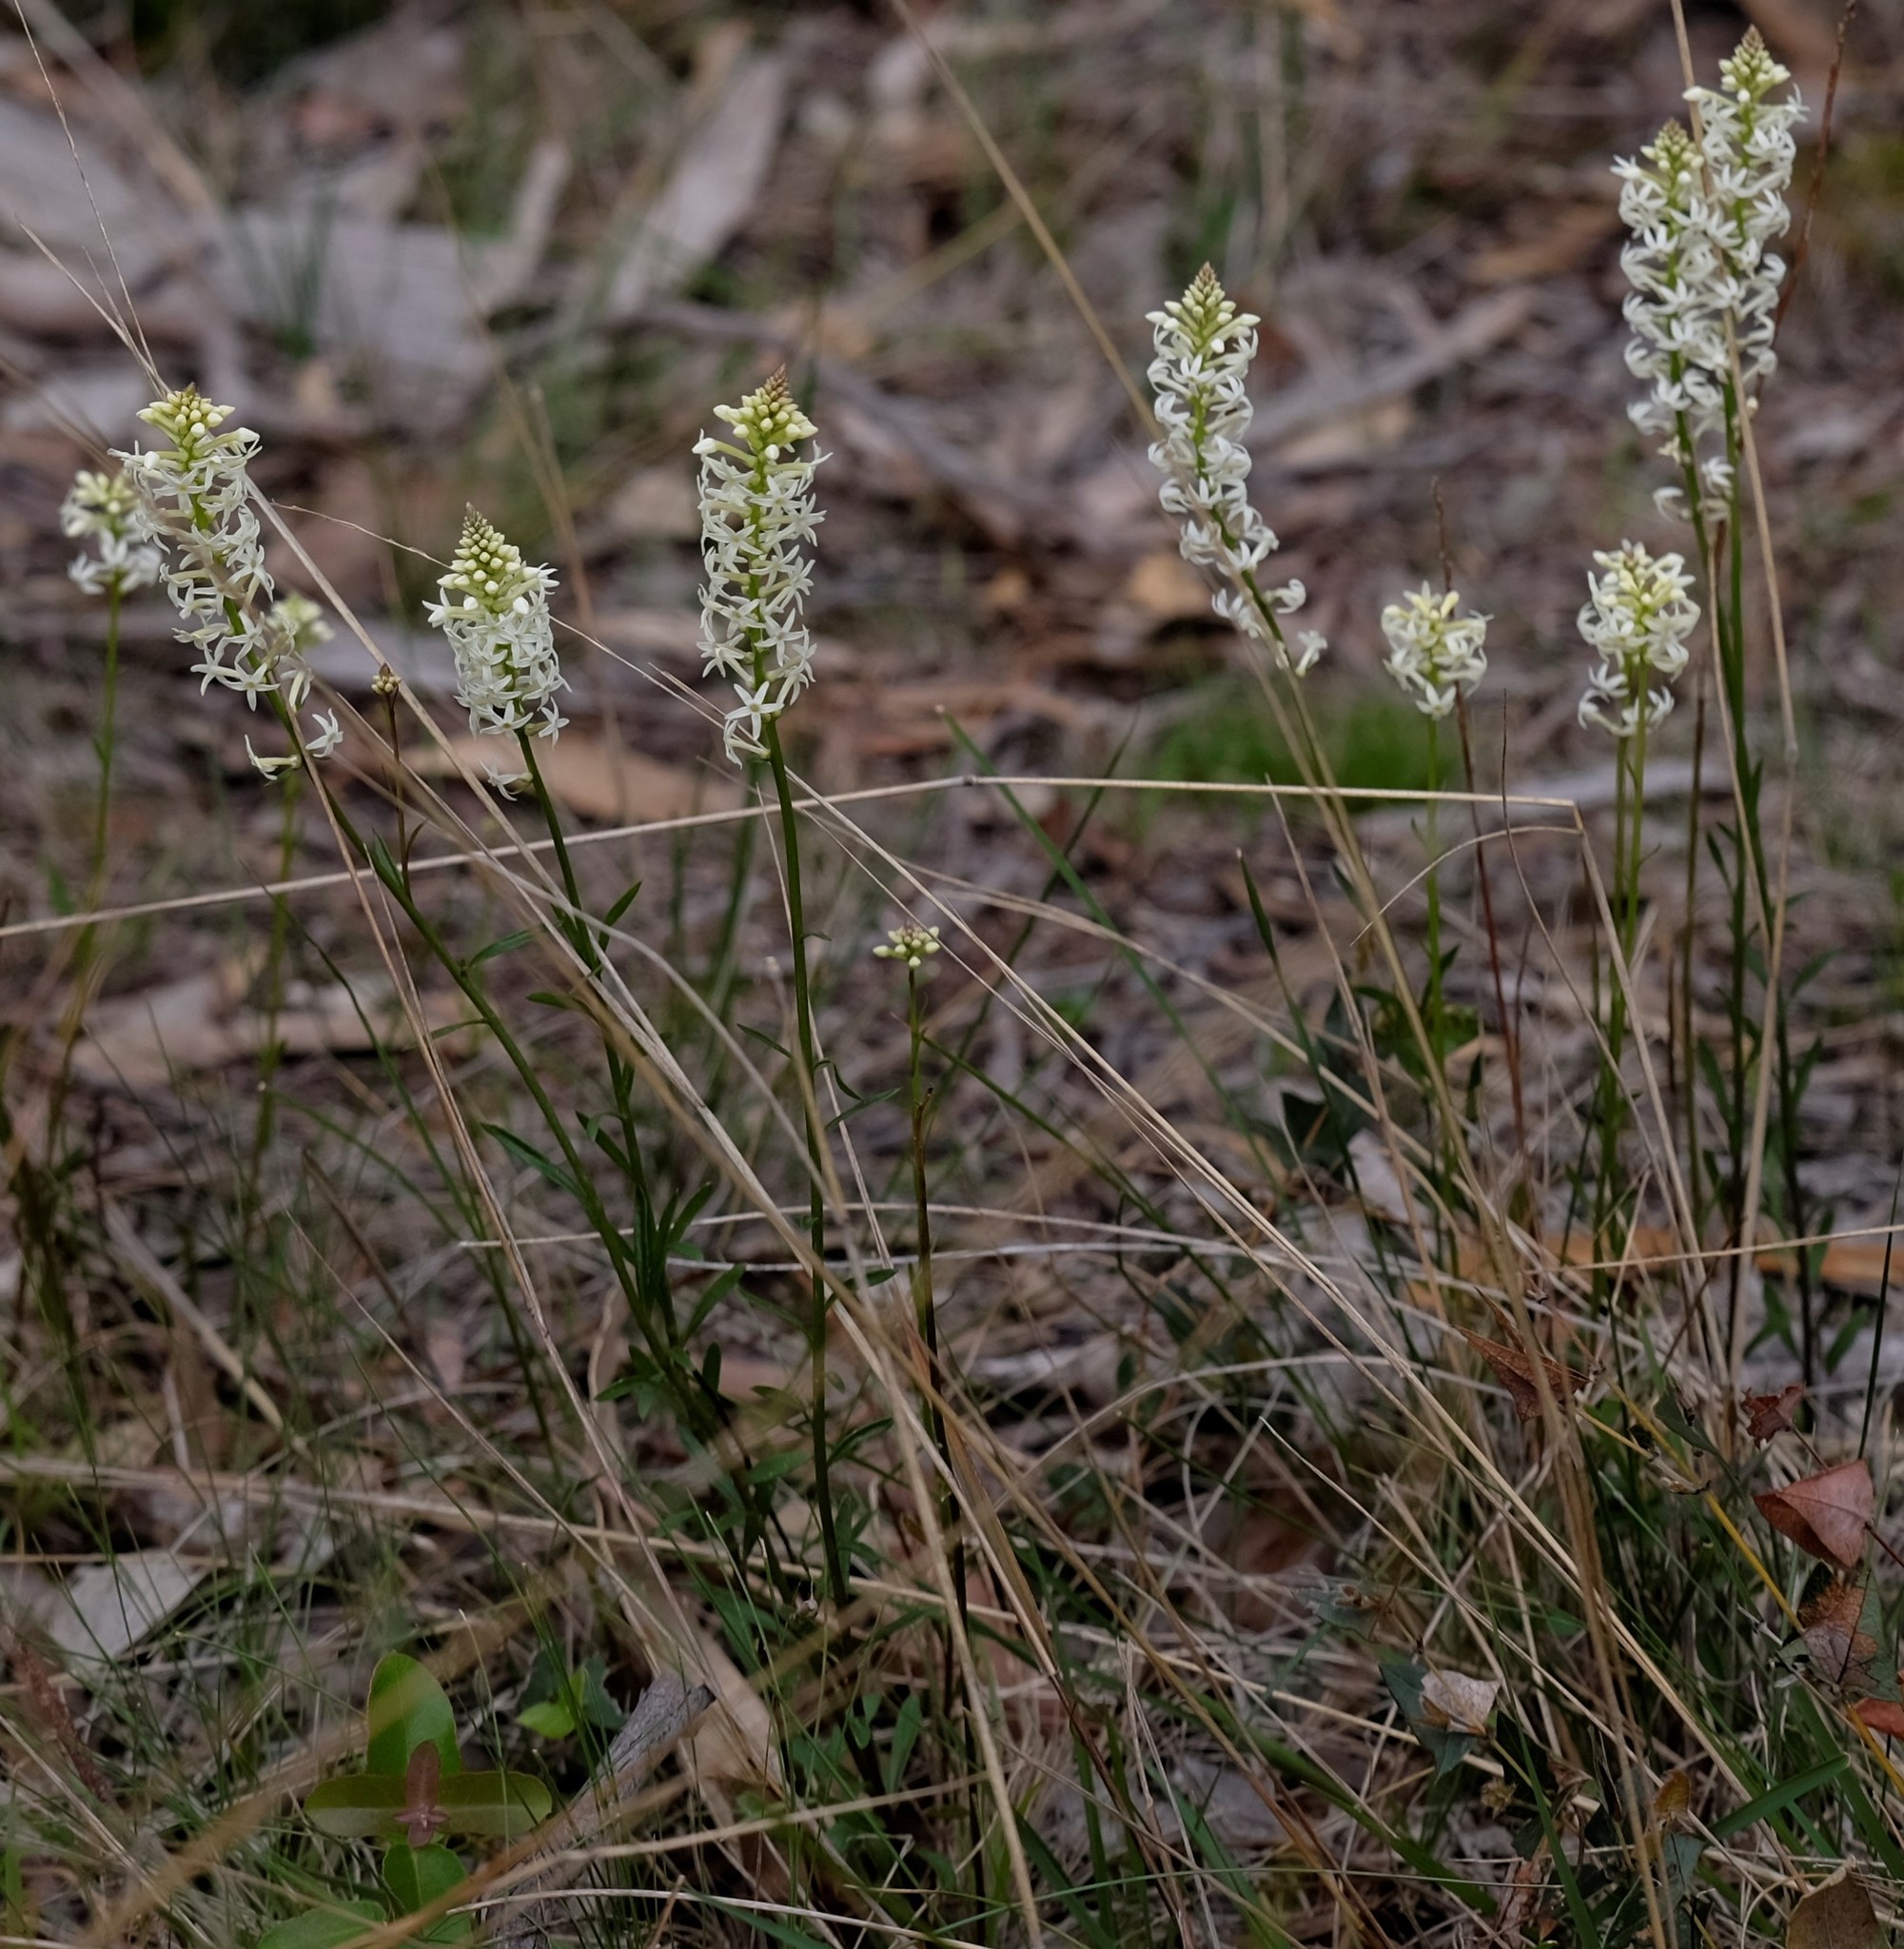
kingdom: Plantae
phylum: Tracheophyta
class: Magnoliopsida
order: Celastrales
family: Celastraceae
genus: Stackhousia
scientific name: Stackhousia monogyna
